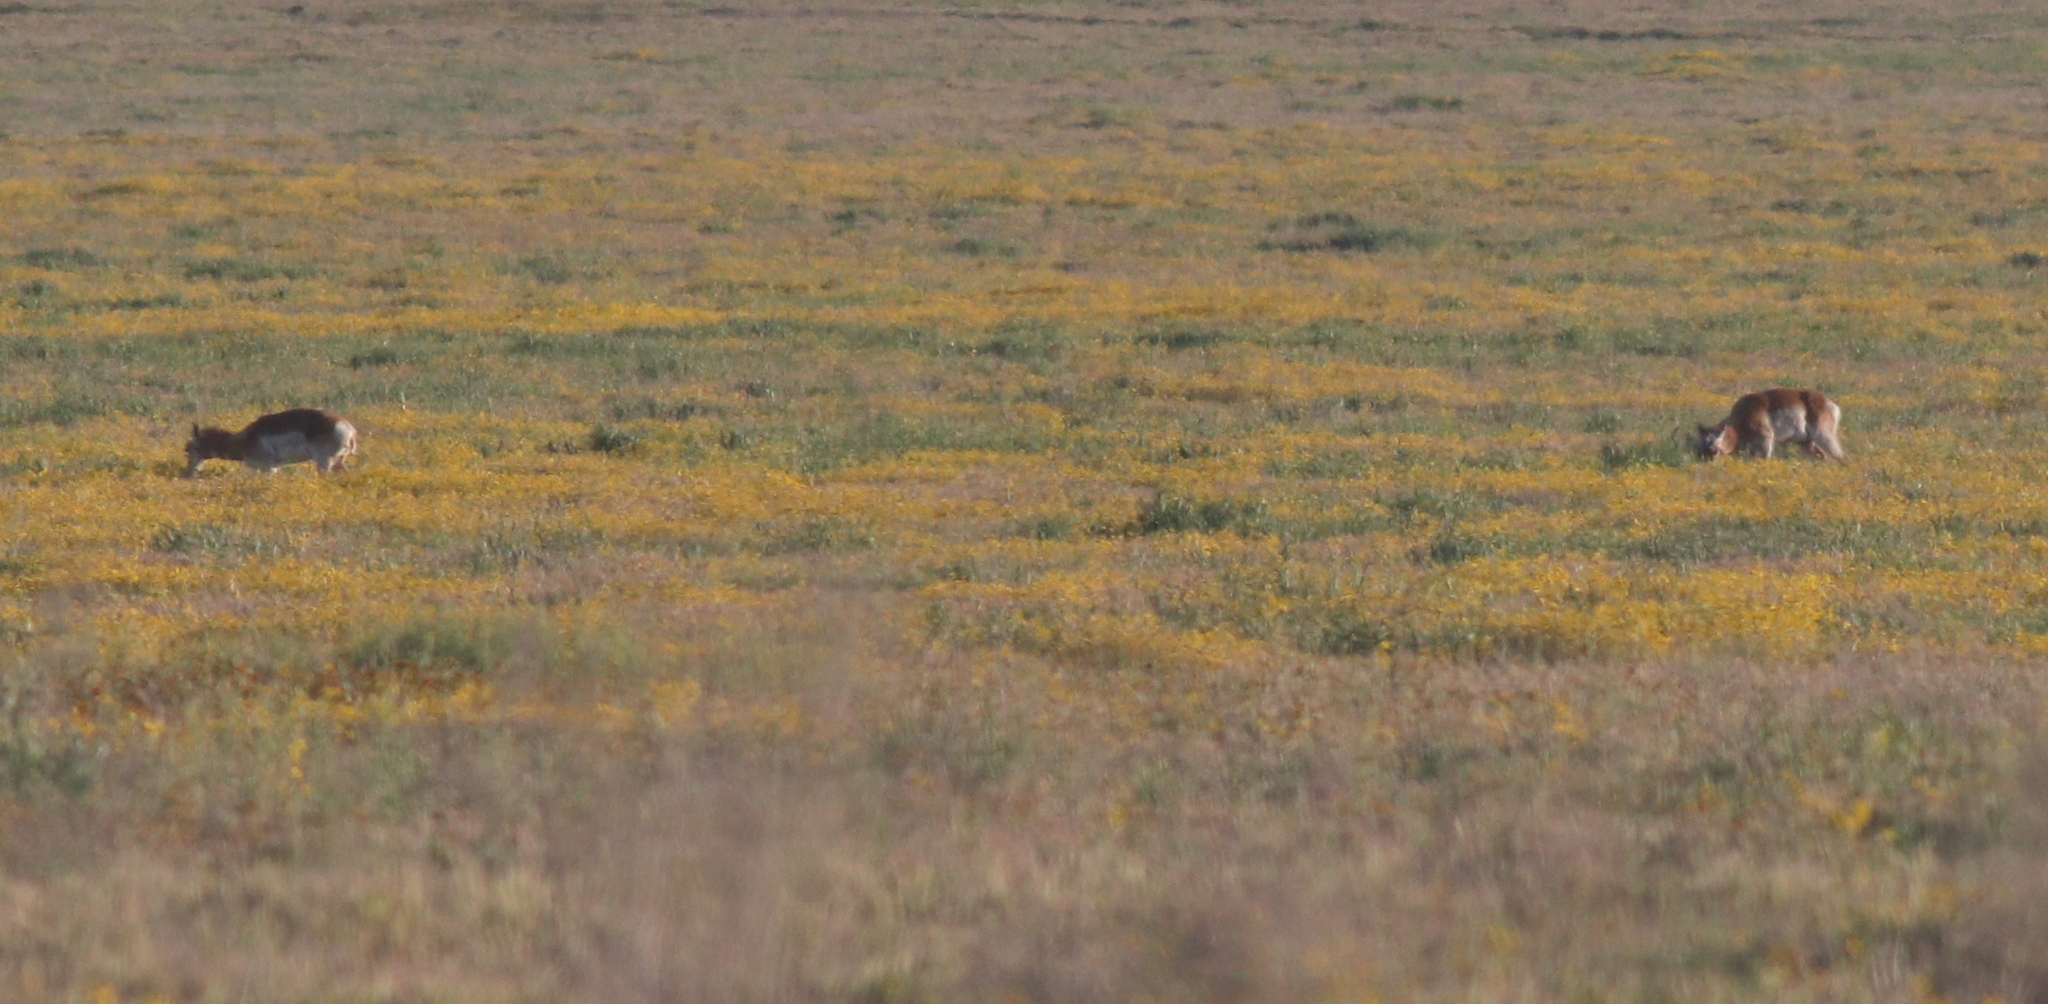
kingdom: Animalia
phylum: Chordata
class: Mammalia
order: Artiodactyla
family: Antilocapridae
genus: Antilocapra
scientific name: Antilocapra americana
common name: Pronghorn
